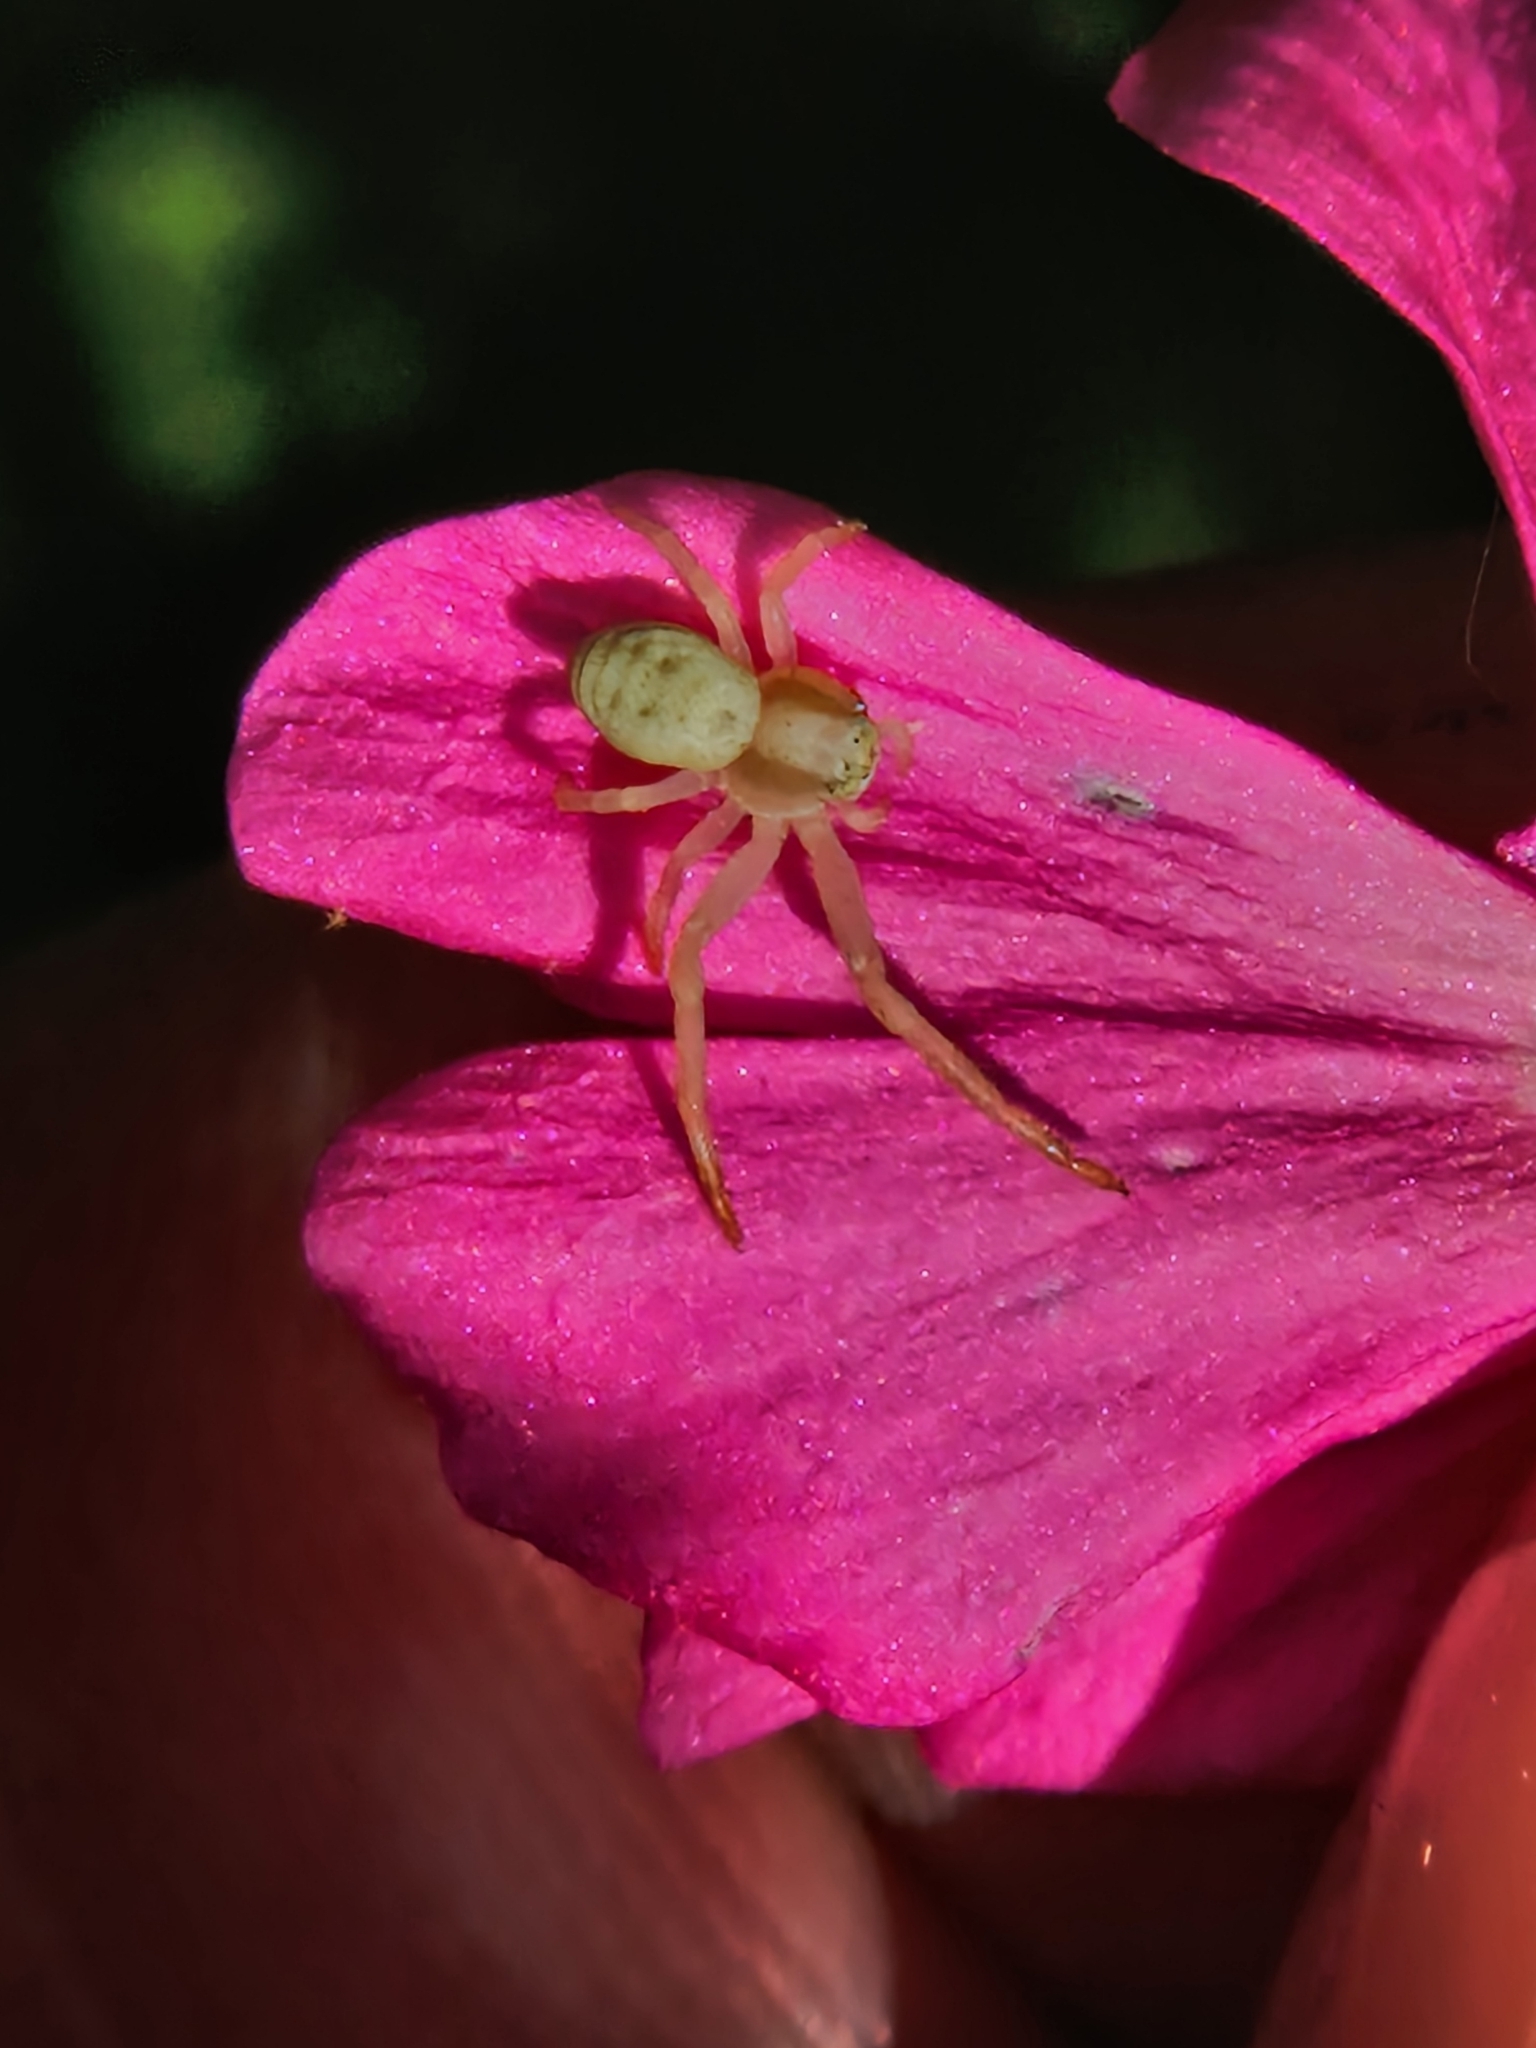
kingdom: Animalia
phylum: Arthropoda
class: Arachnida
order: Araneae
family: Thomisidae
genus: Misumena
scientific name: Misumena vatia
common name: Goldenrod crab spider
